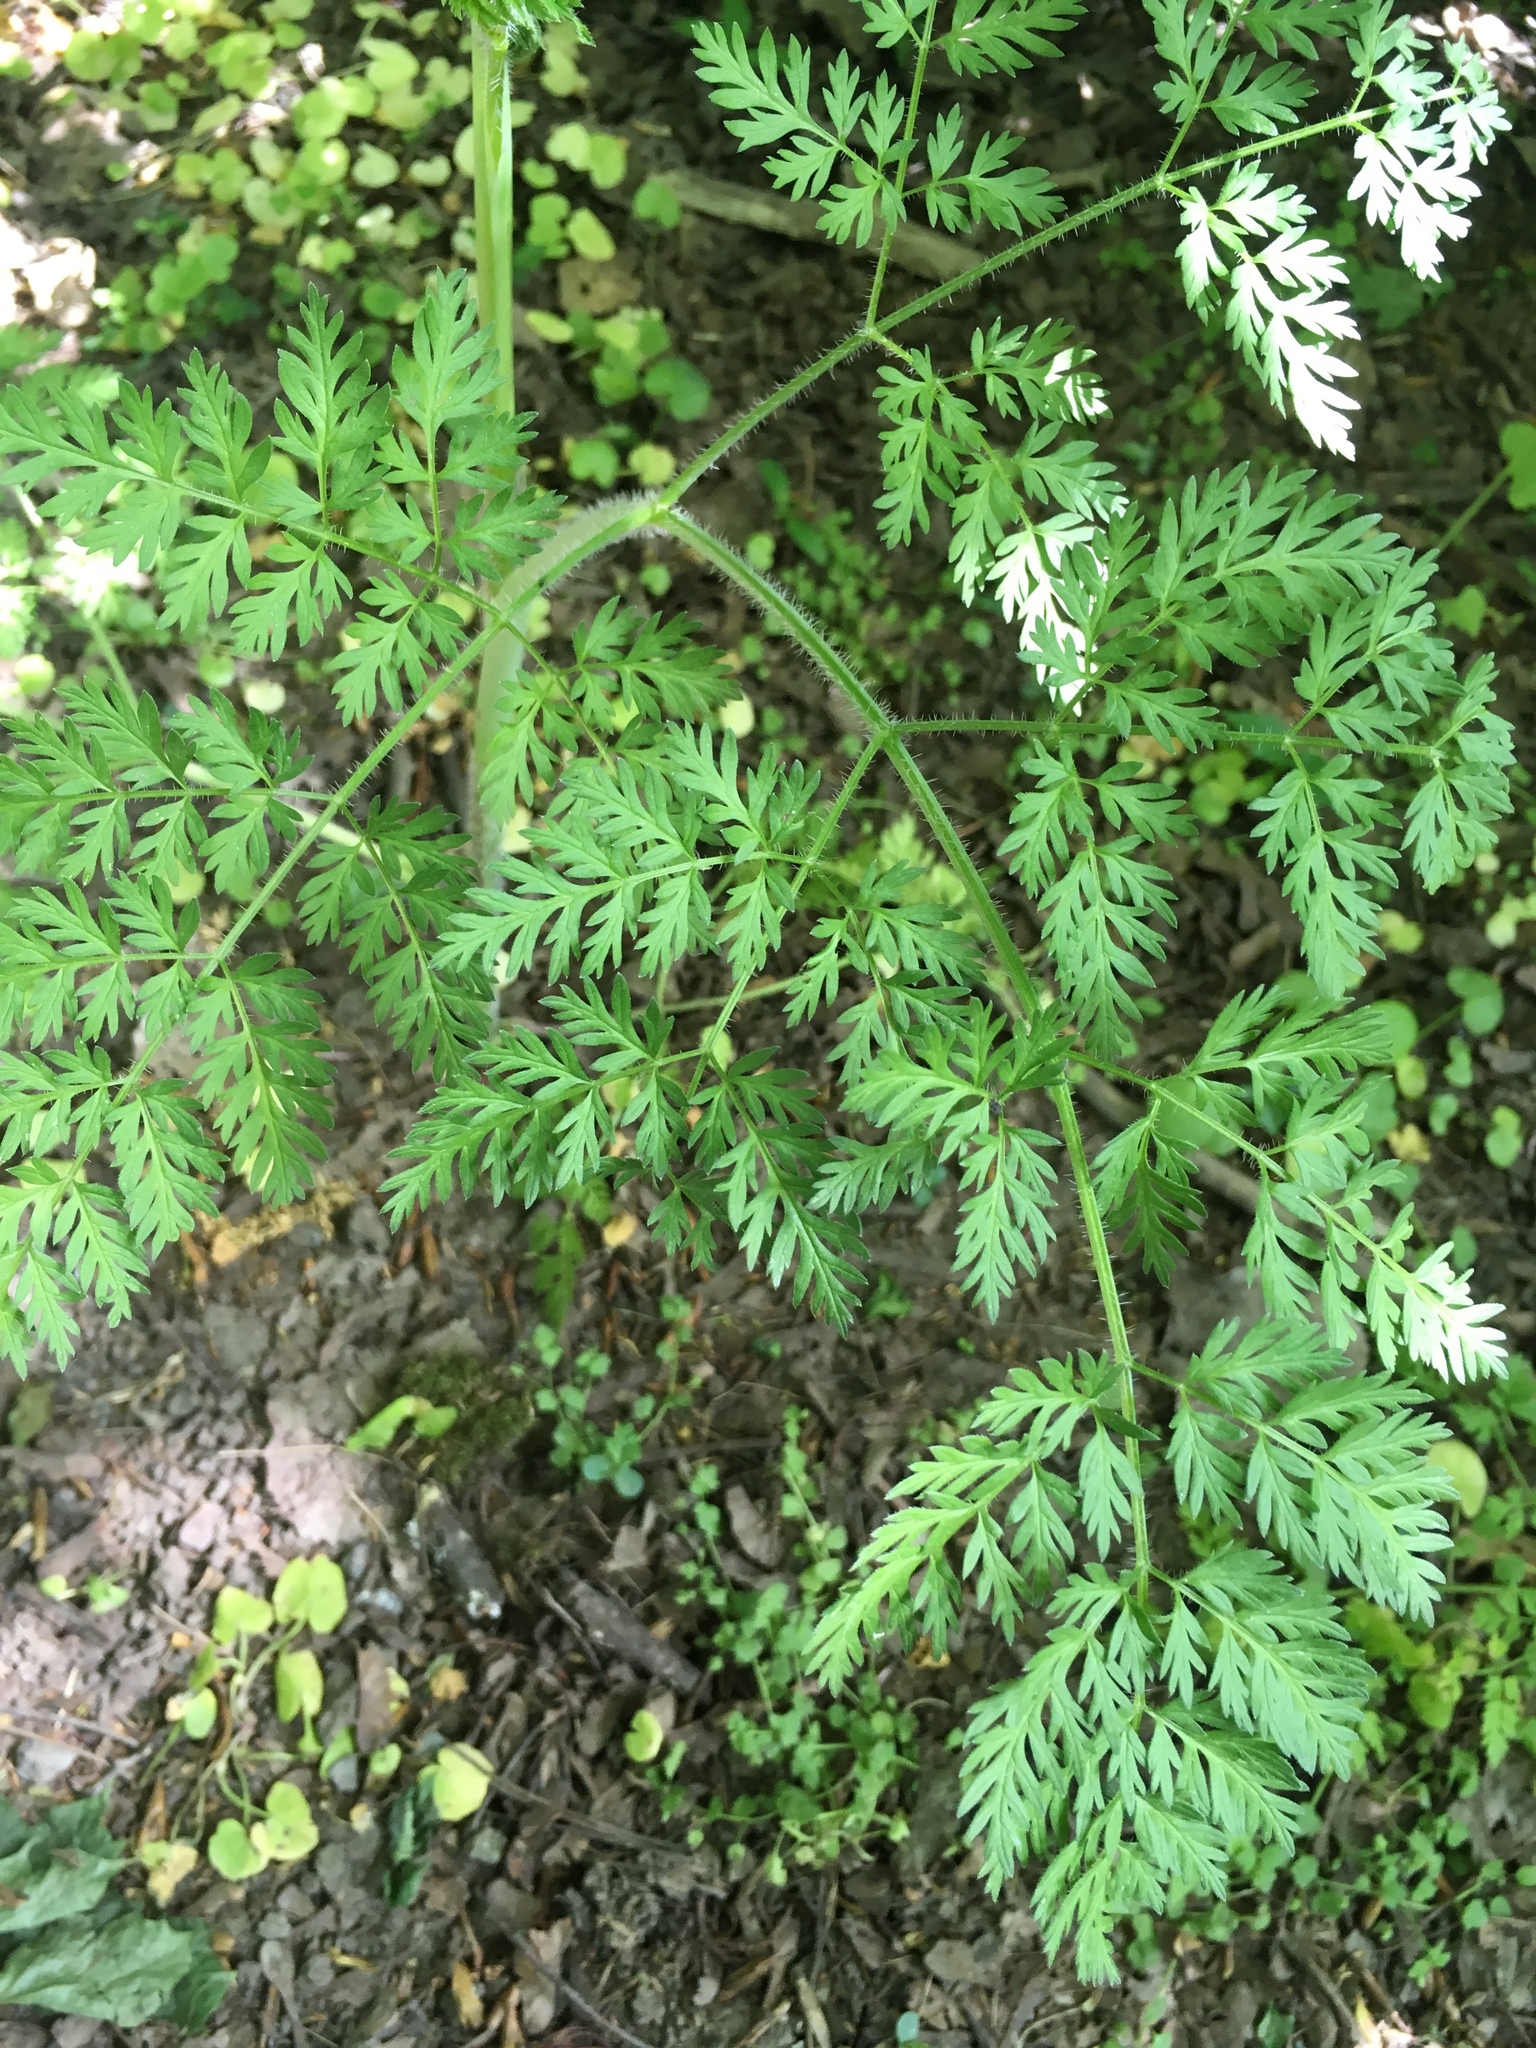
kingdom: Plantae
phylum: Tracheophyta
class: Magnoliopsida
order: Apiales
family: Apiaceae
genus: Chaerophyllum
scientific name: Chaerophyllum bulbosum
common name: Bulbous chervil
